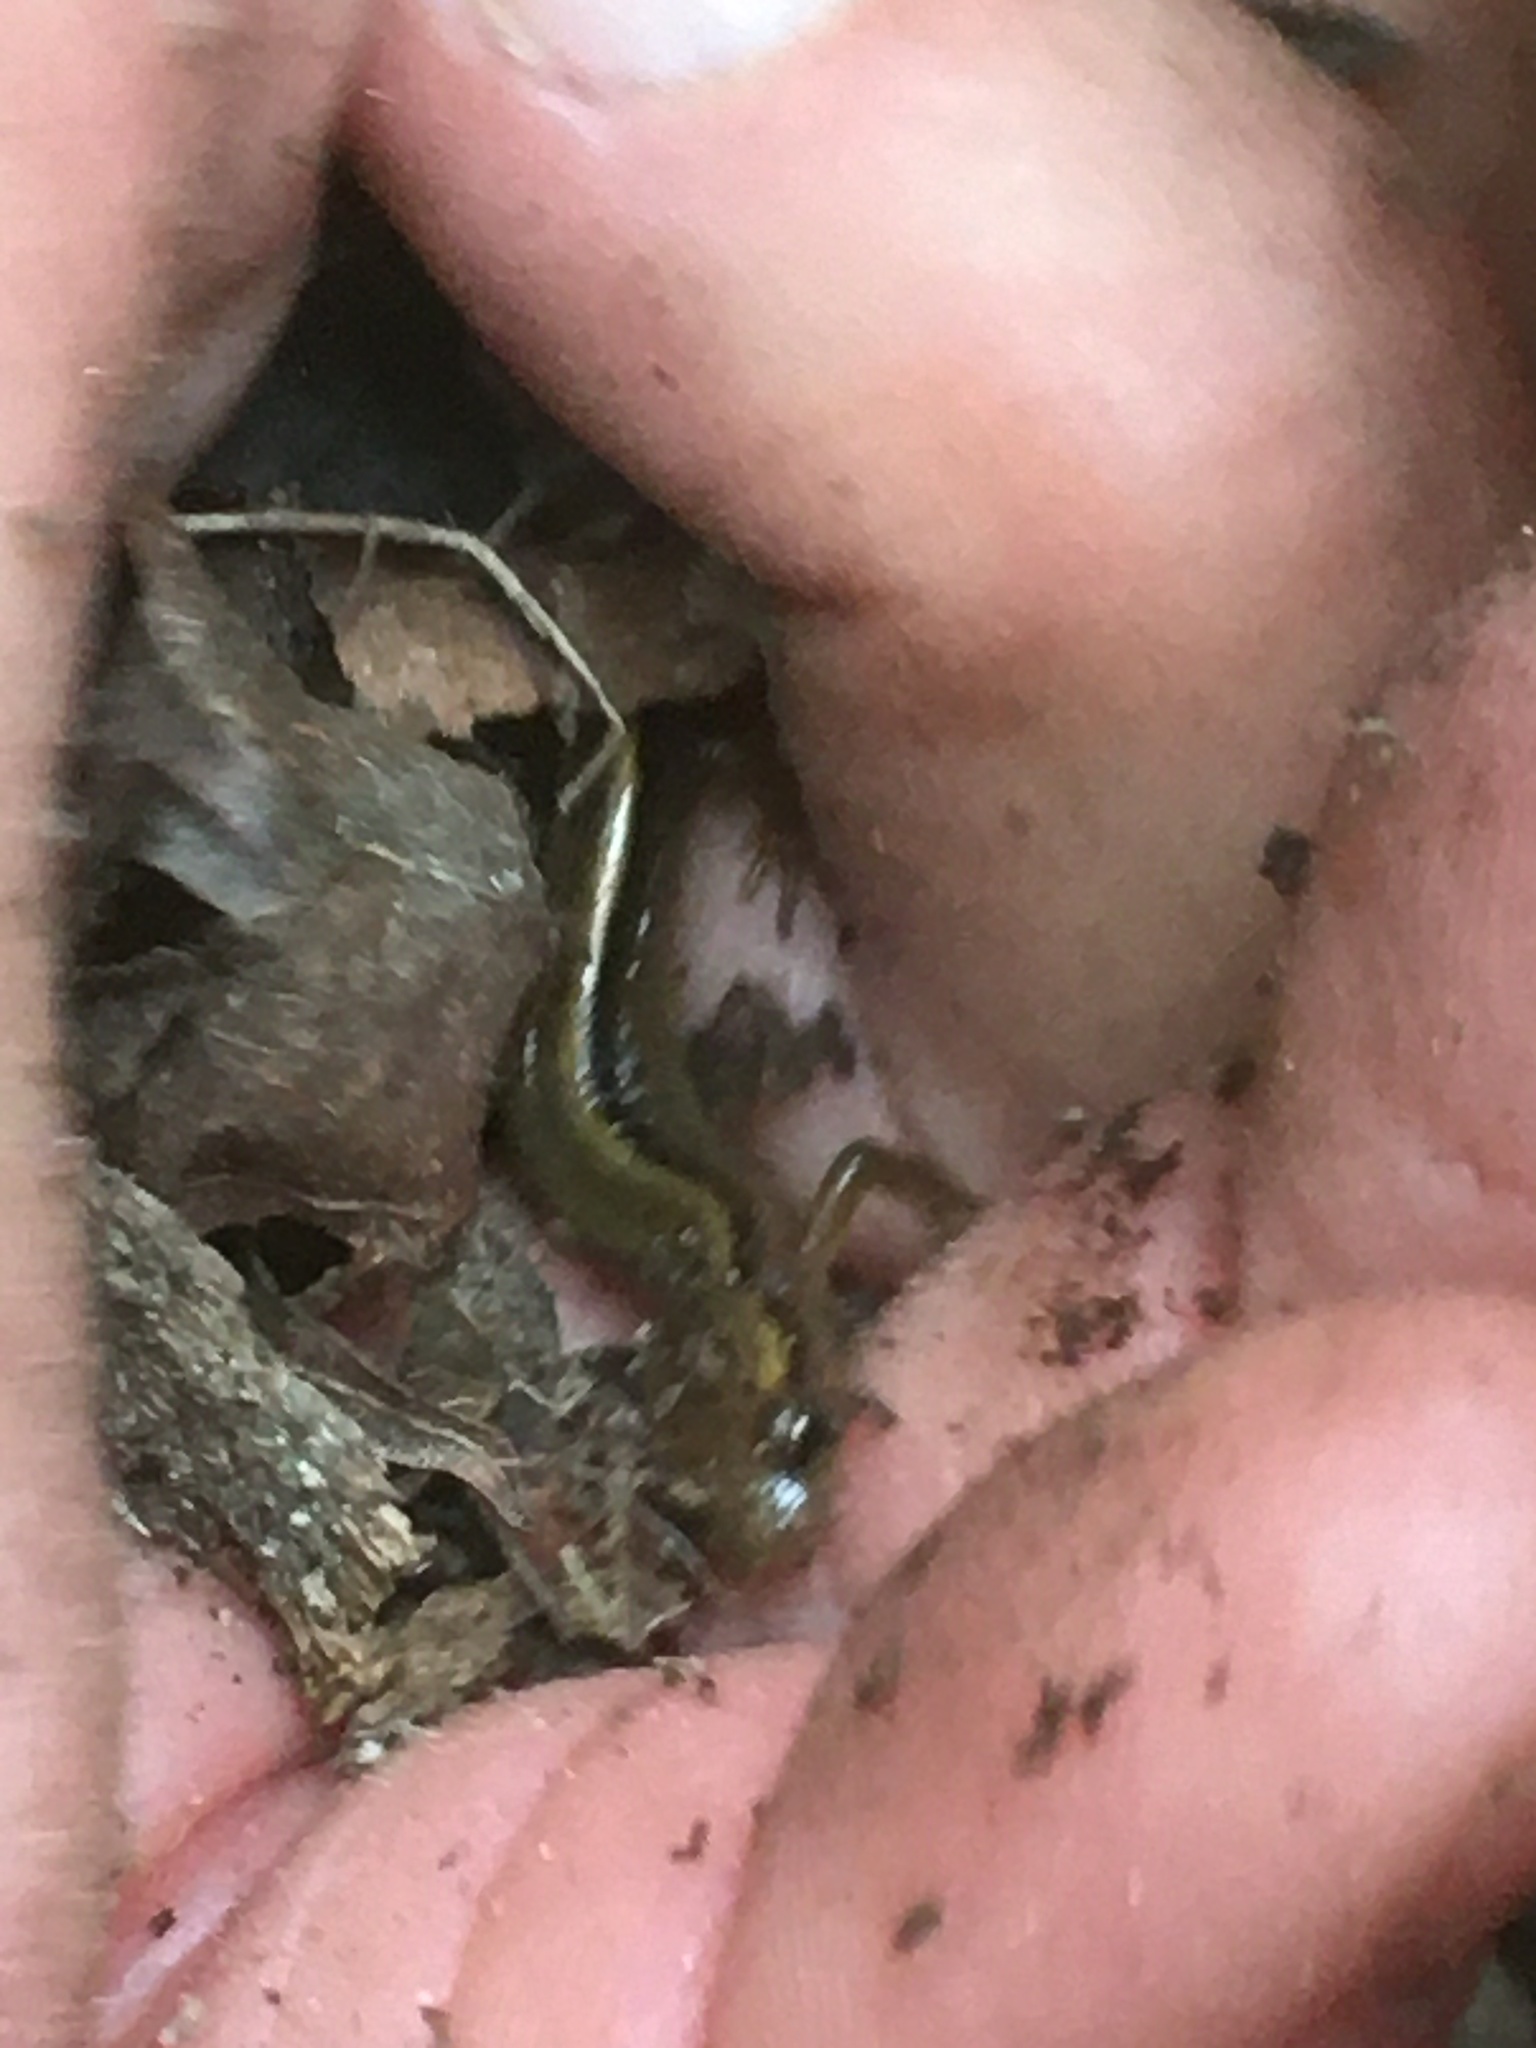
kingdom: Animalia
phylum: Chordata
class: Amphibia
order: Caudata
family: Plethodontidae
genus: Eurycea
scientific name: Eurycea bislineata
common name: Northern two-lined salamander
